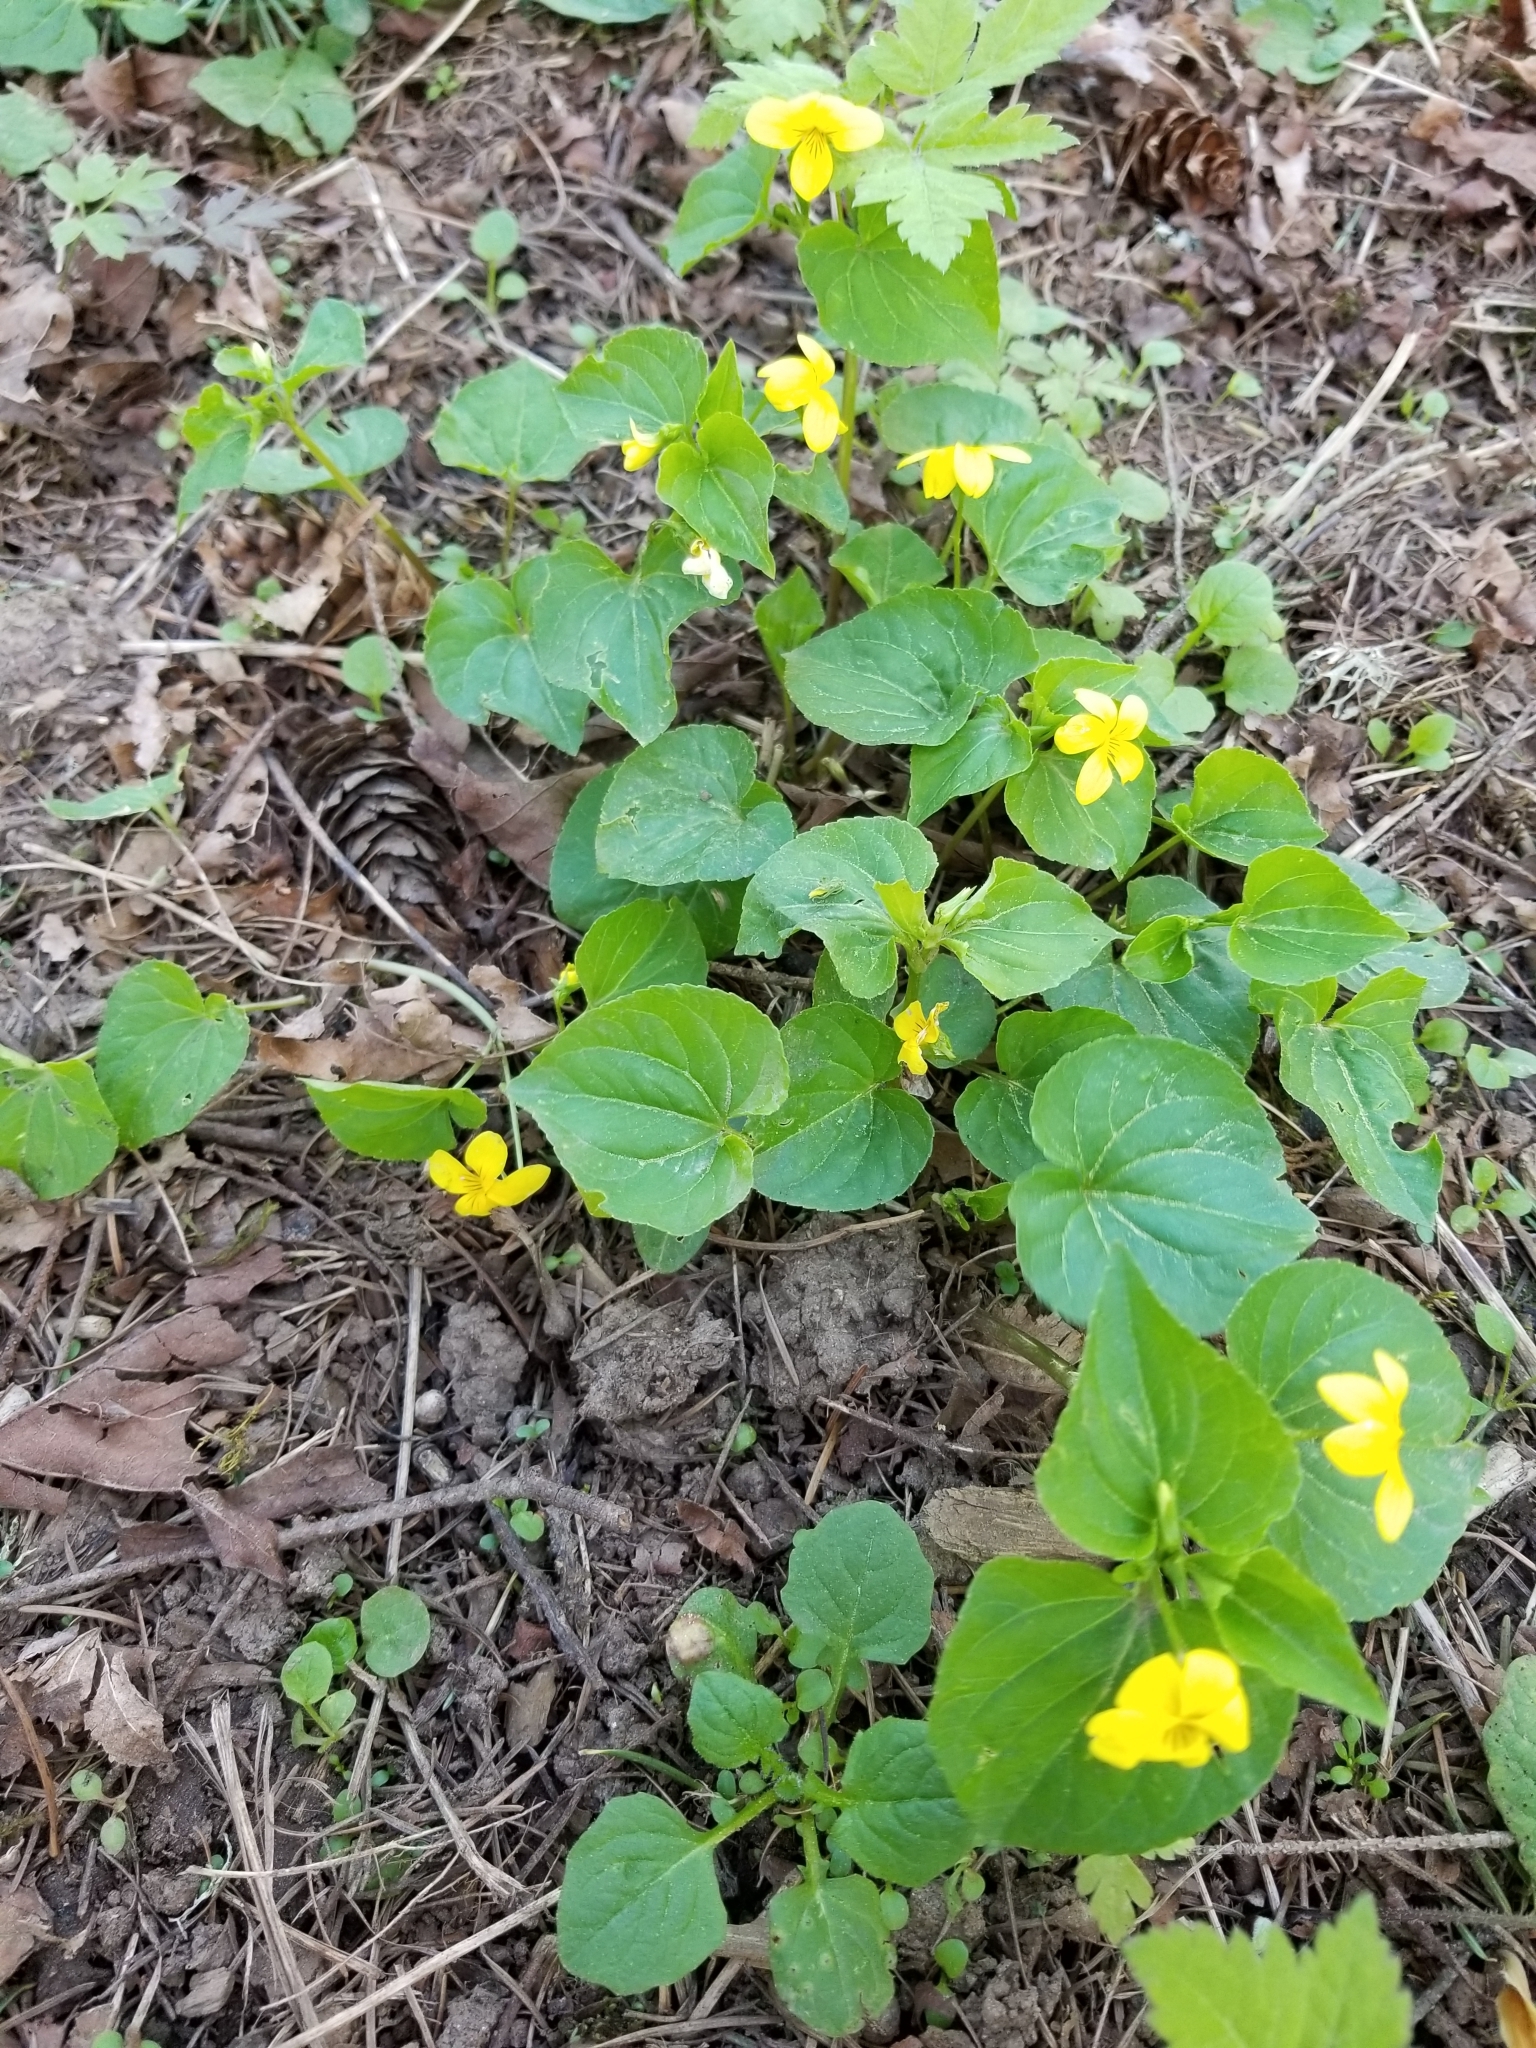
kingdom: Plantae
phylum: Tracheophyta
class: Magnoliopsida
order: Malpighiales
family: Violaceae
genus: Viola
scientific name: Viola glabella
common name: Stream violet
